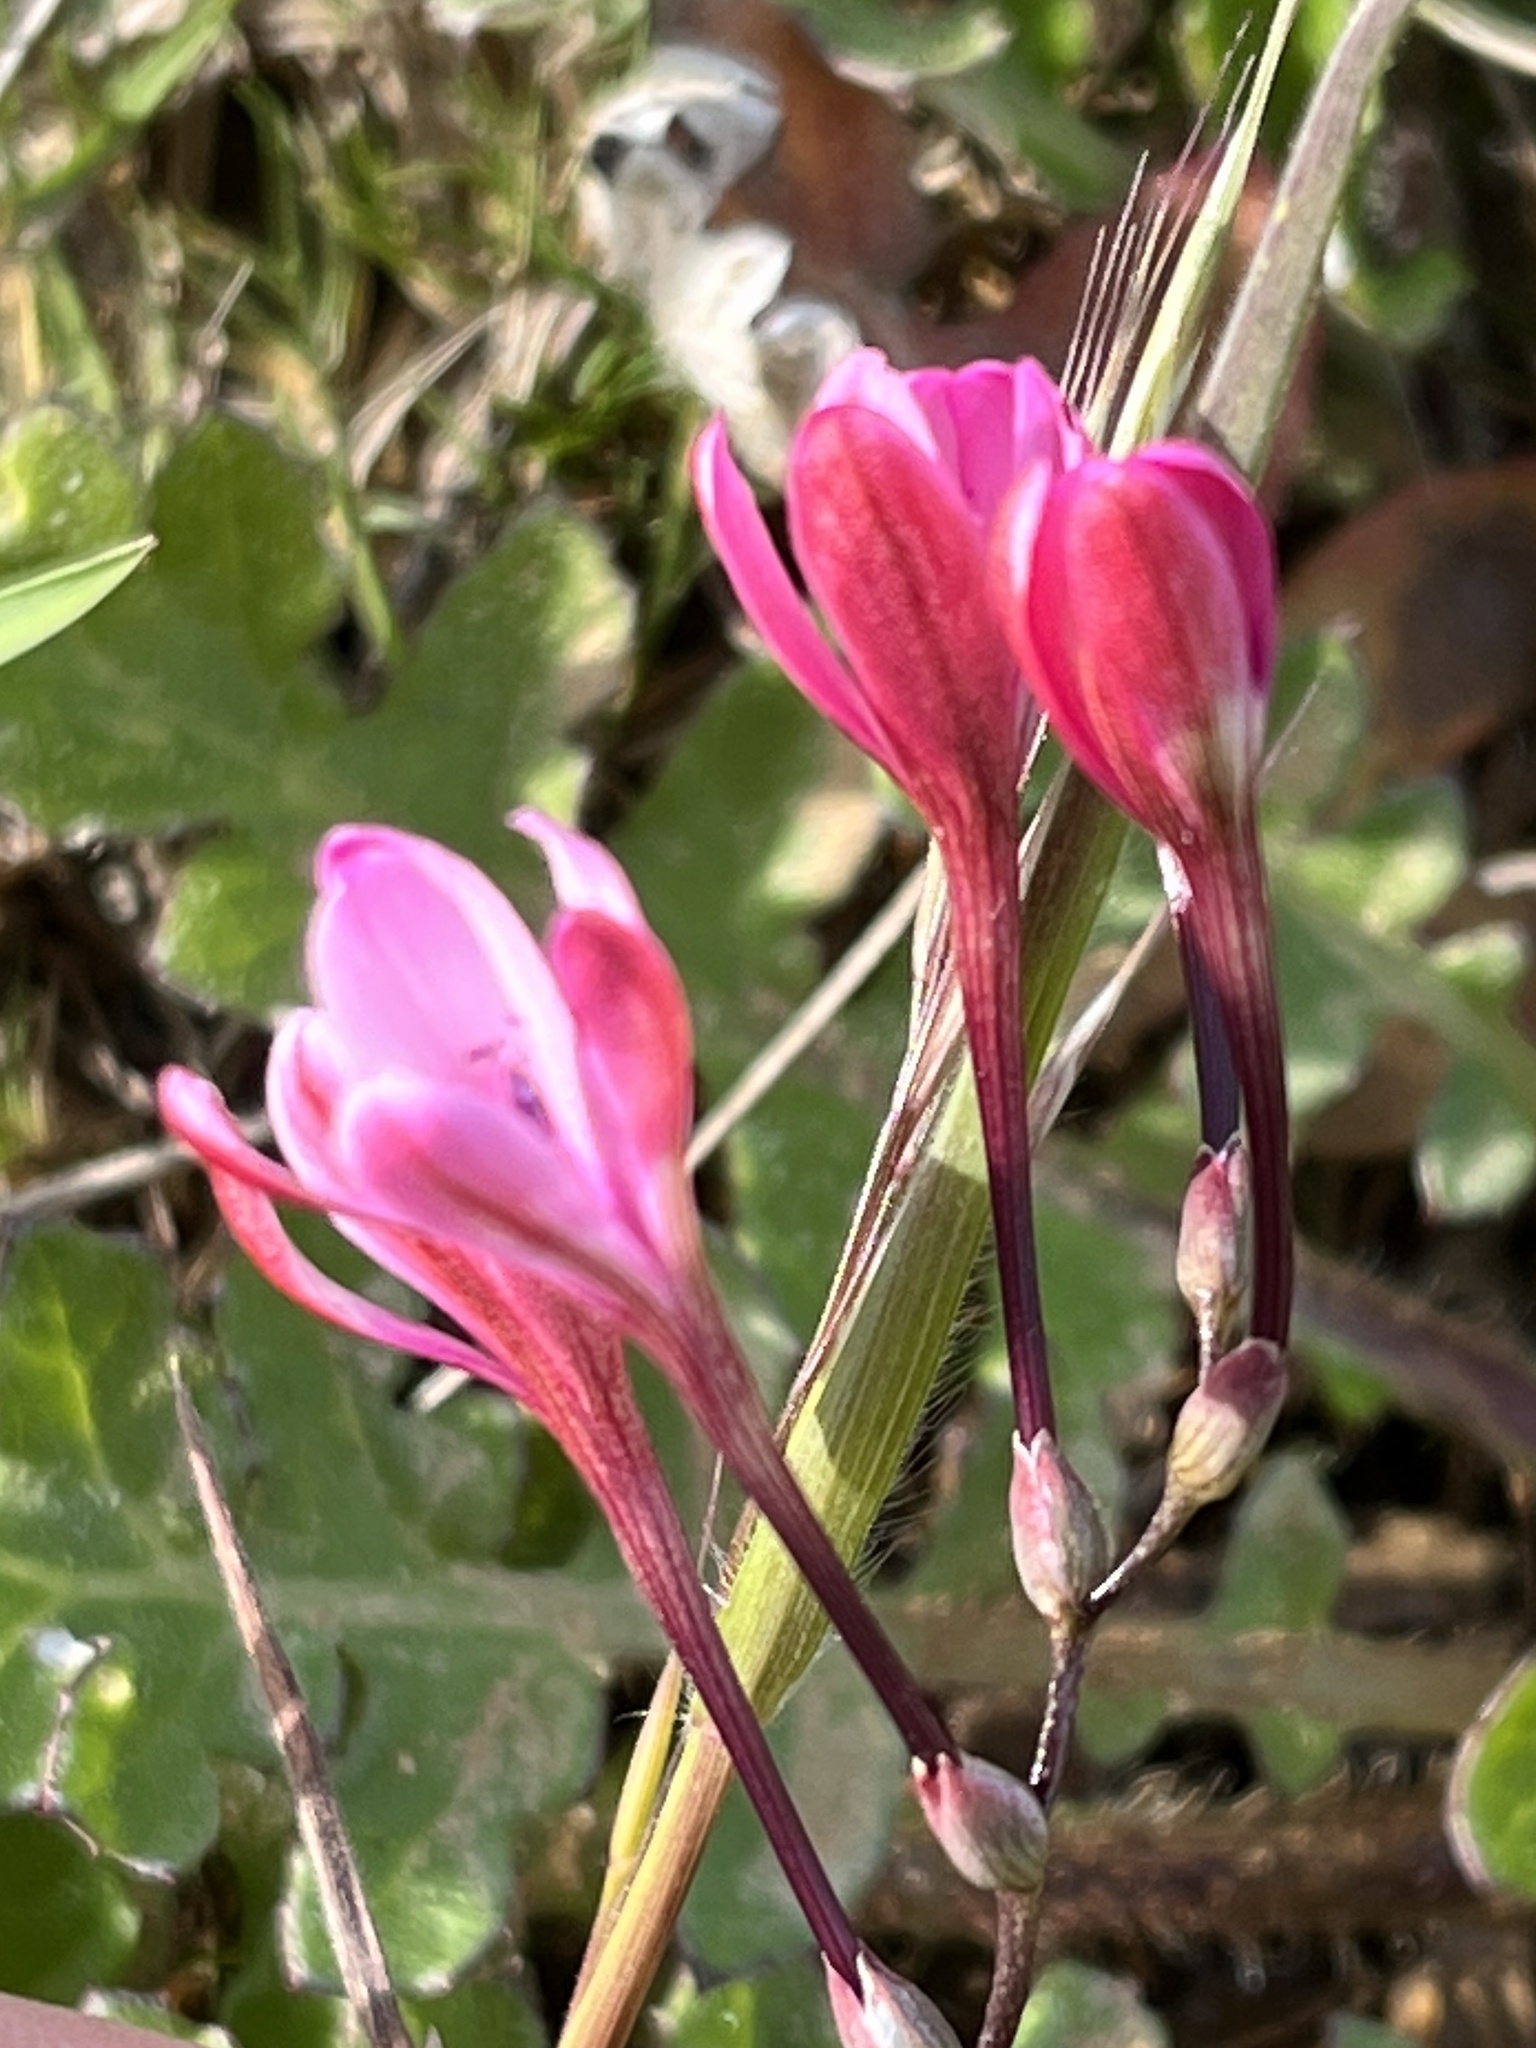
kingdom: Plantae
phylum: Tracheophyta
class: Liliopsida
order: Asparagales
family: Iridaceae
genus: Freesia
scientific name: Freesia verrucosa
